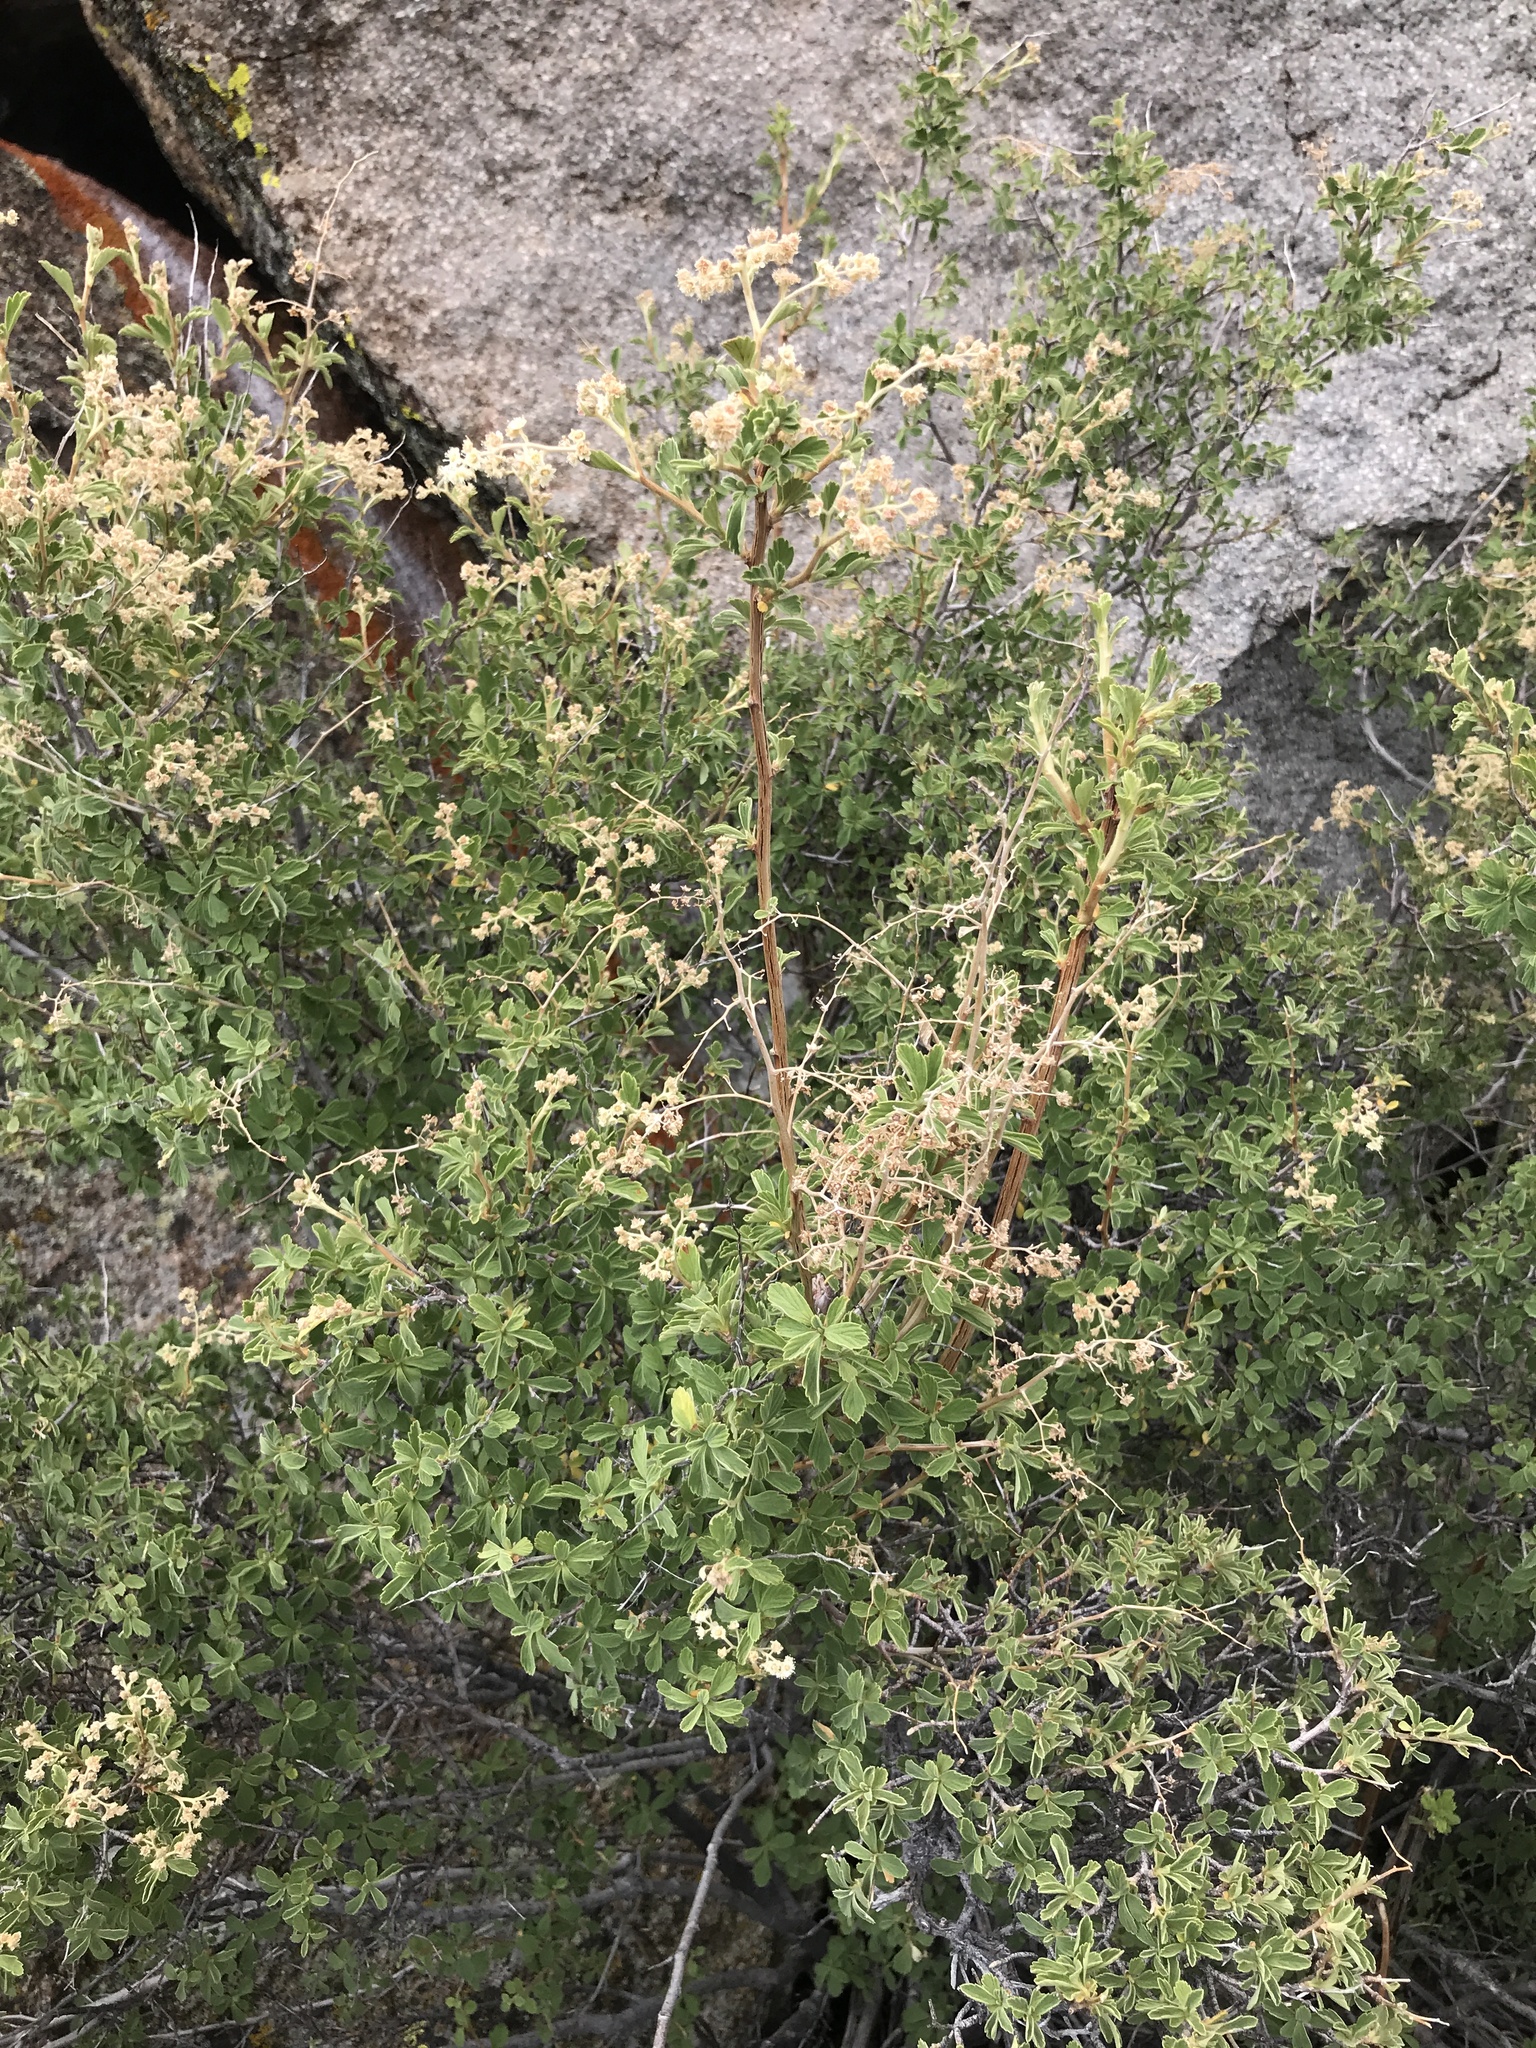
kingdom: Plantae
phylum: Tracheophyta
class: Magnoliopsida
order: Rosales
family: Rosaceae
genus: Holodiscus
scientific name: Holodiscus discolor
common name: Oceanspray
